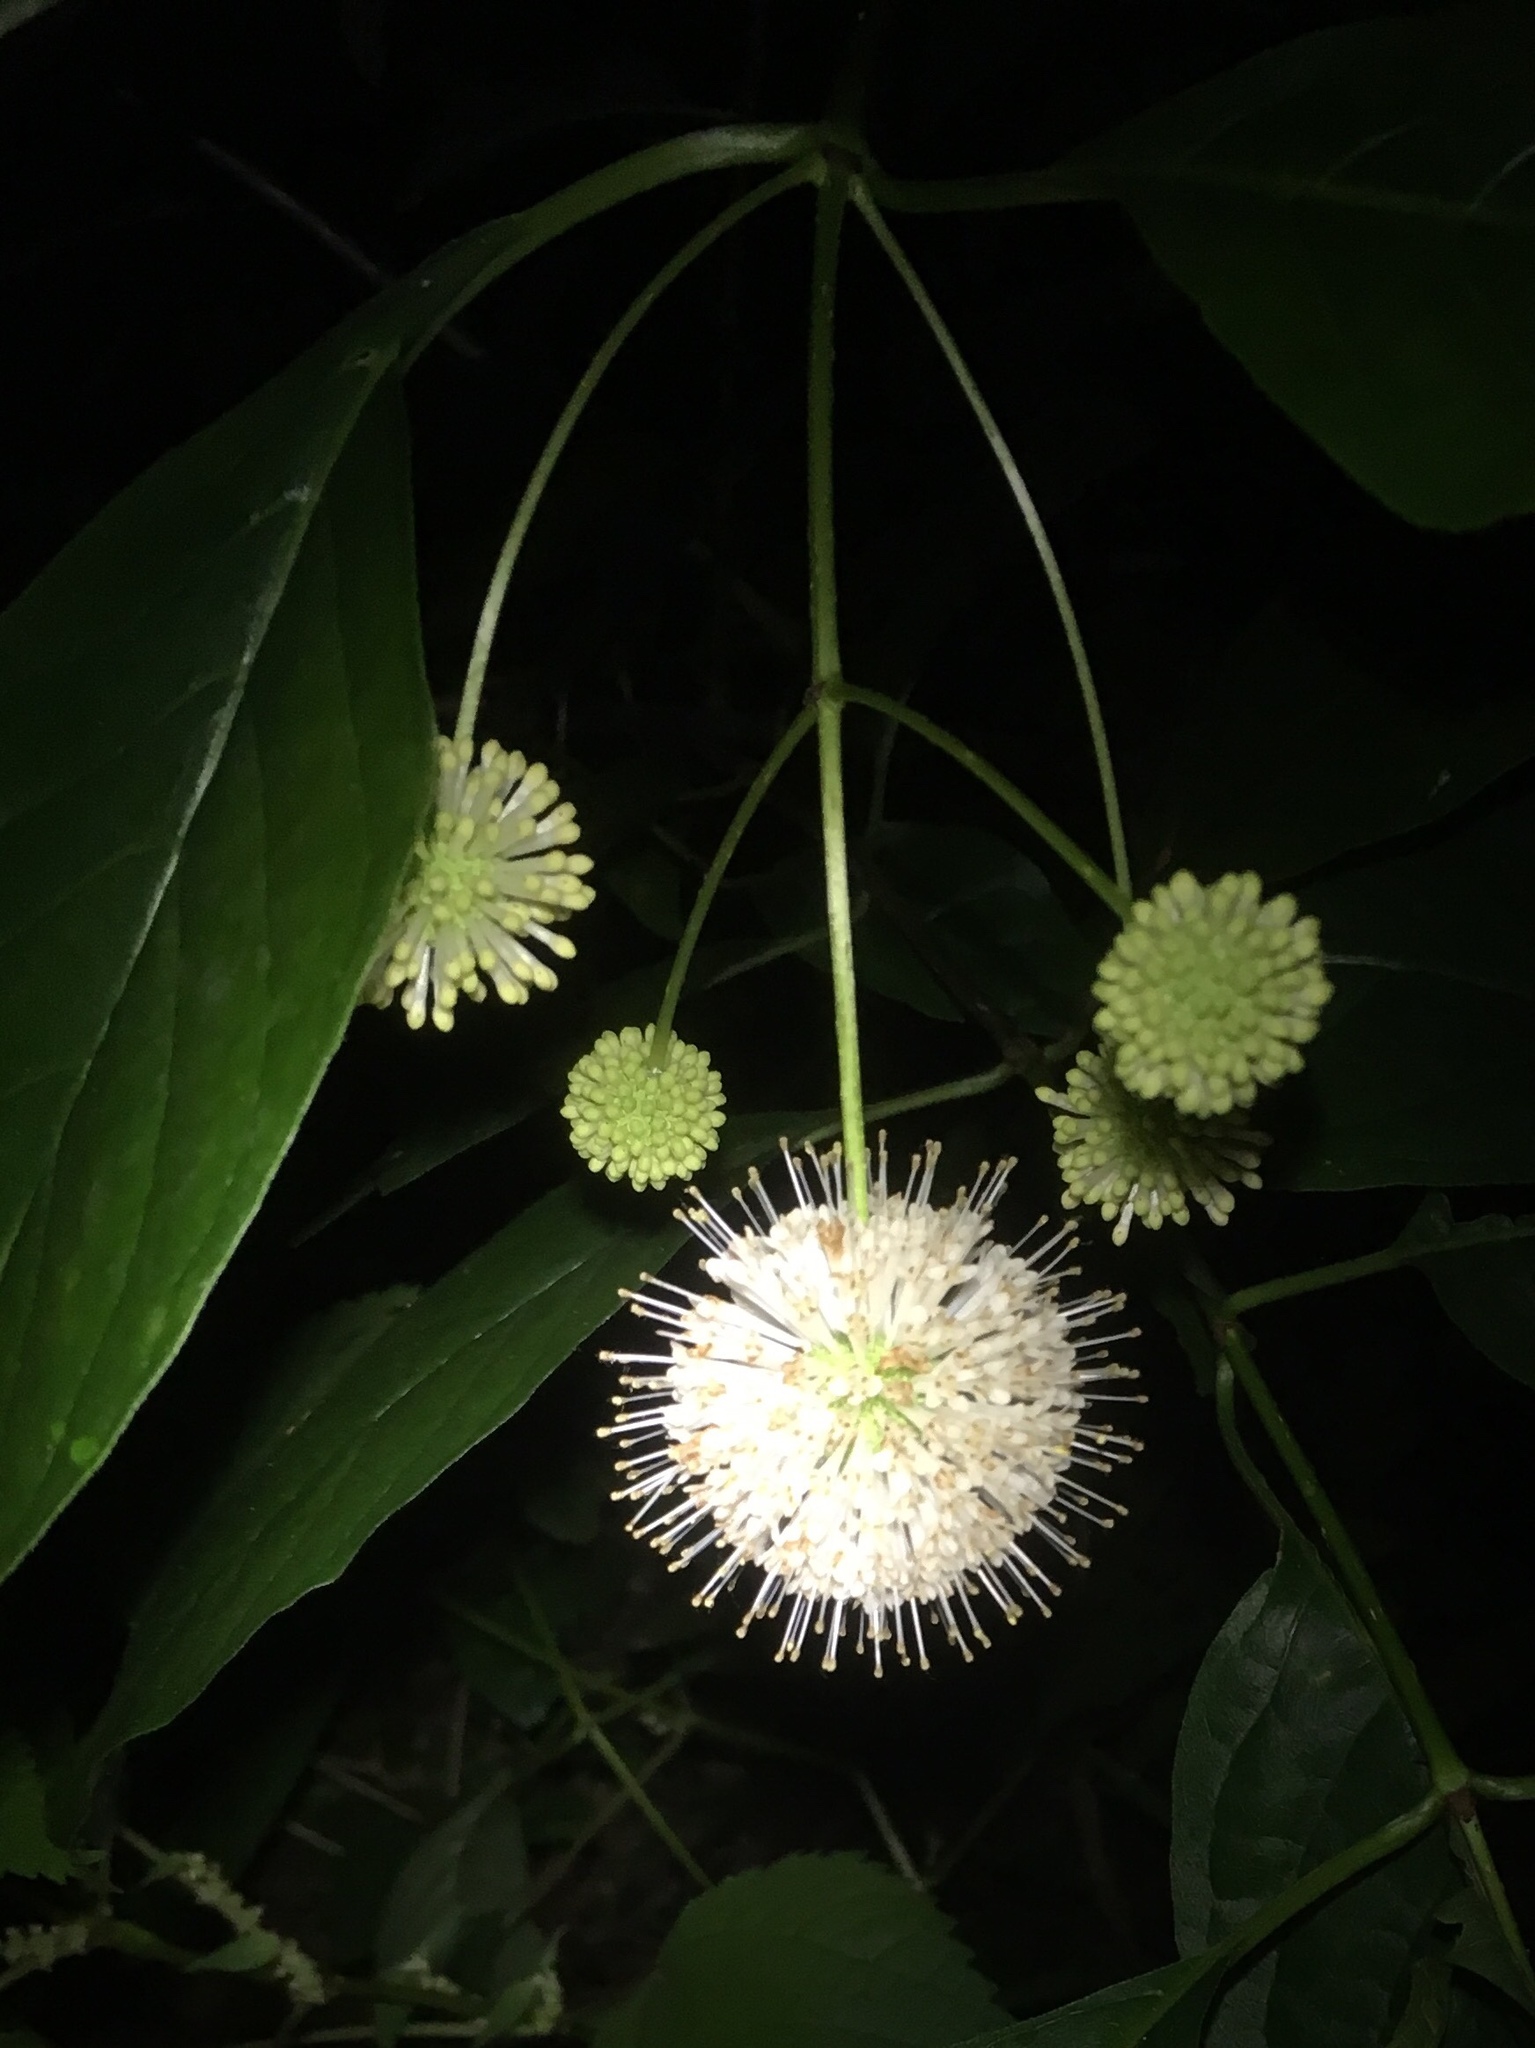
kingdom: Plantae
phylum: Tracheophyta
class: Magnoliopsida
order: Gentianales
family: Rubiaceae
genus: Cephalanthus
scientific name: Cephalanthus occidentalis
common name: Button-willow
